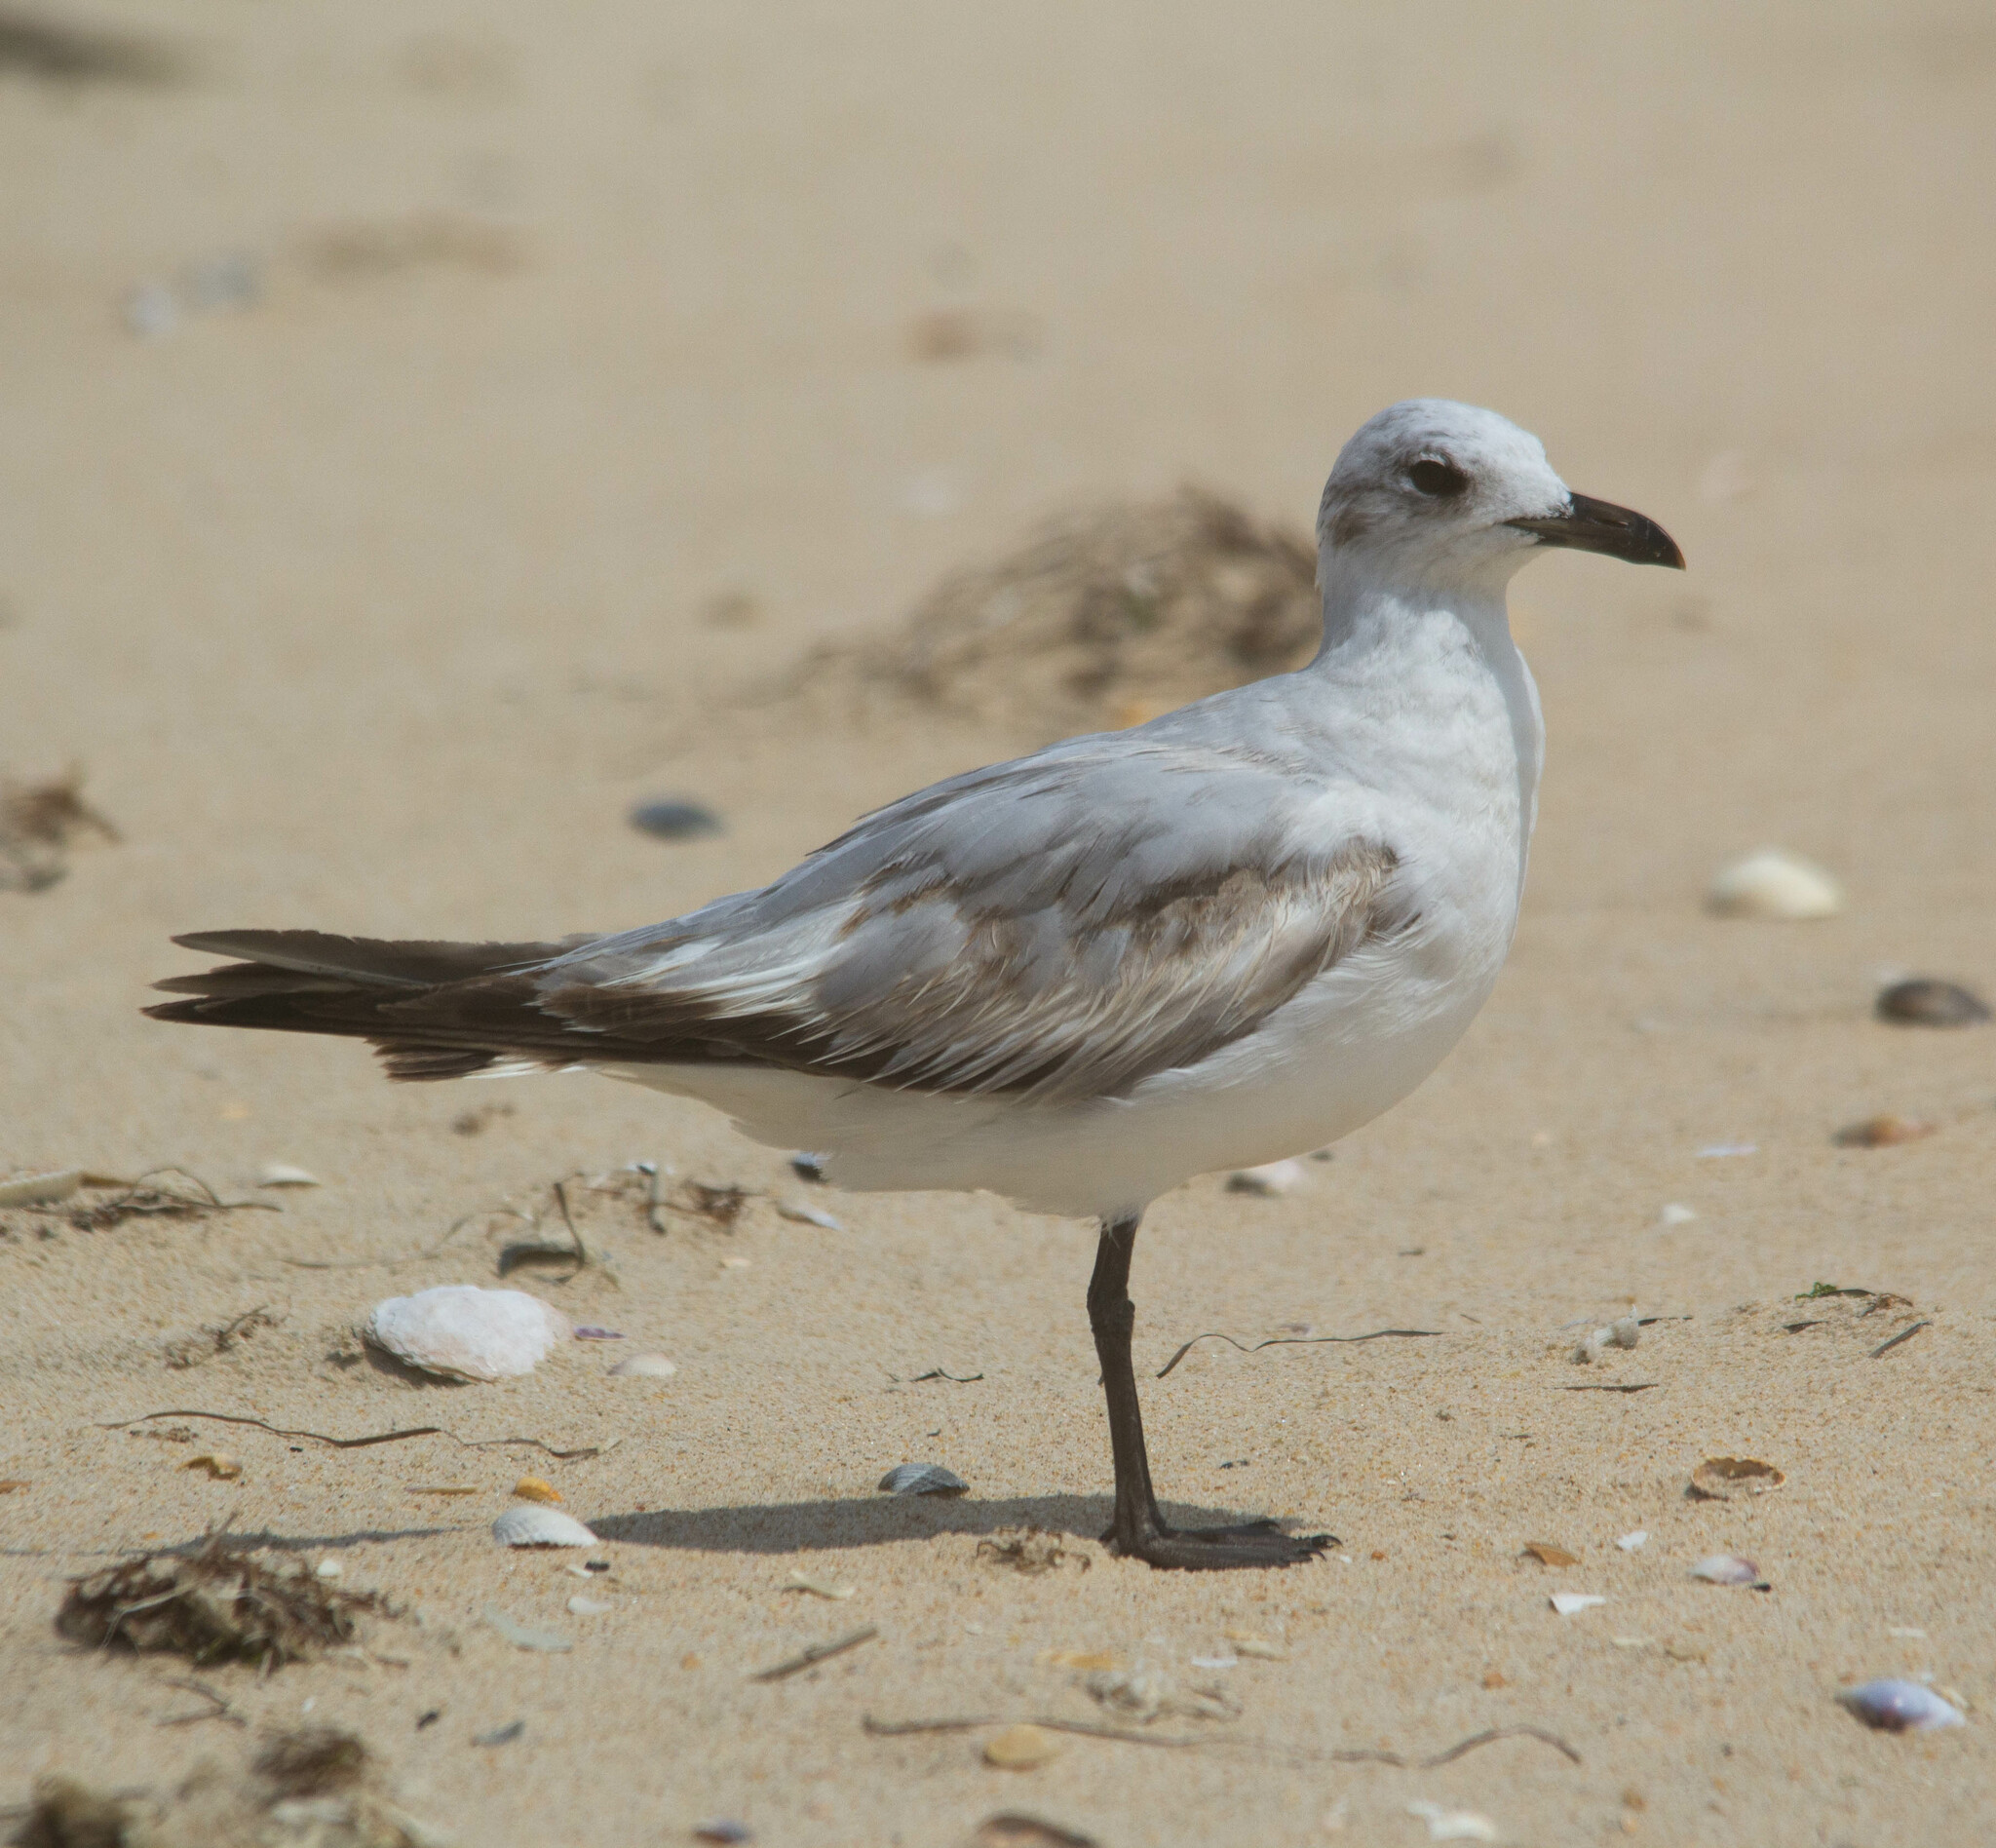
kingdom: Animalia
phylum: Chordata
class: Aves
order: Charadriiformes
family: Laridae
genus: Ichthyaetus
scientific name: Ichthyaetus melanocephalus
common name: Mediterranean gull
